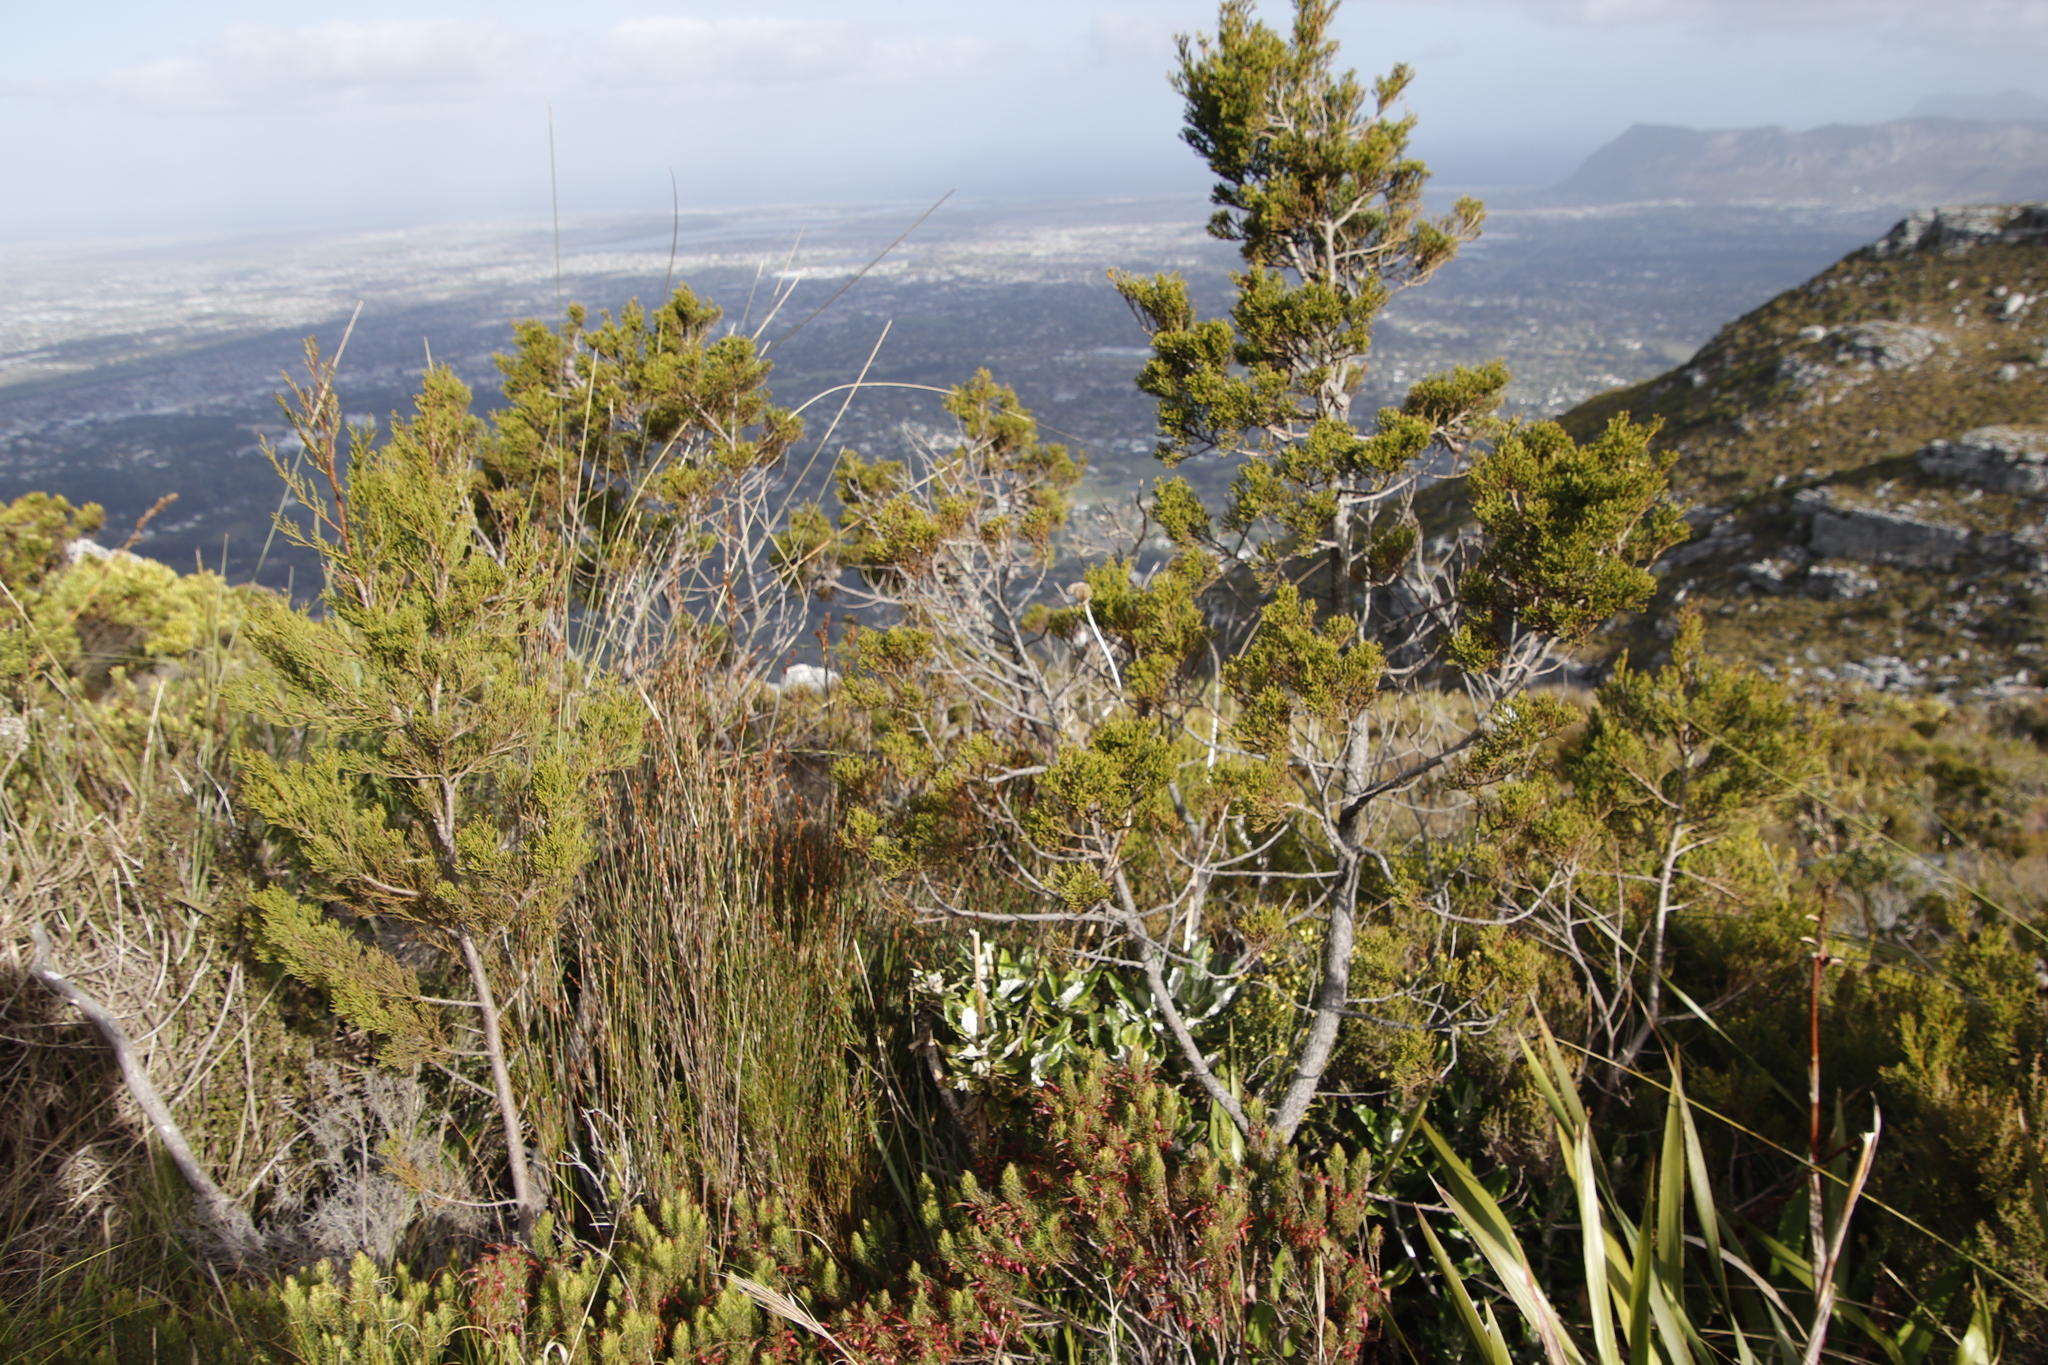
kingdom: Plantae
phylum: Tracheophyta
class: Pinopsida
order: Pinales
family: Cupressaceae
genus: Widdringtonia
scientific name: Widdringtonia nodiflora
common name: Cape cypress
